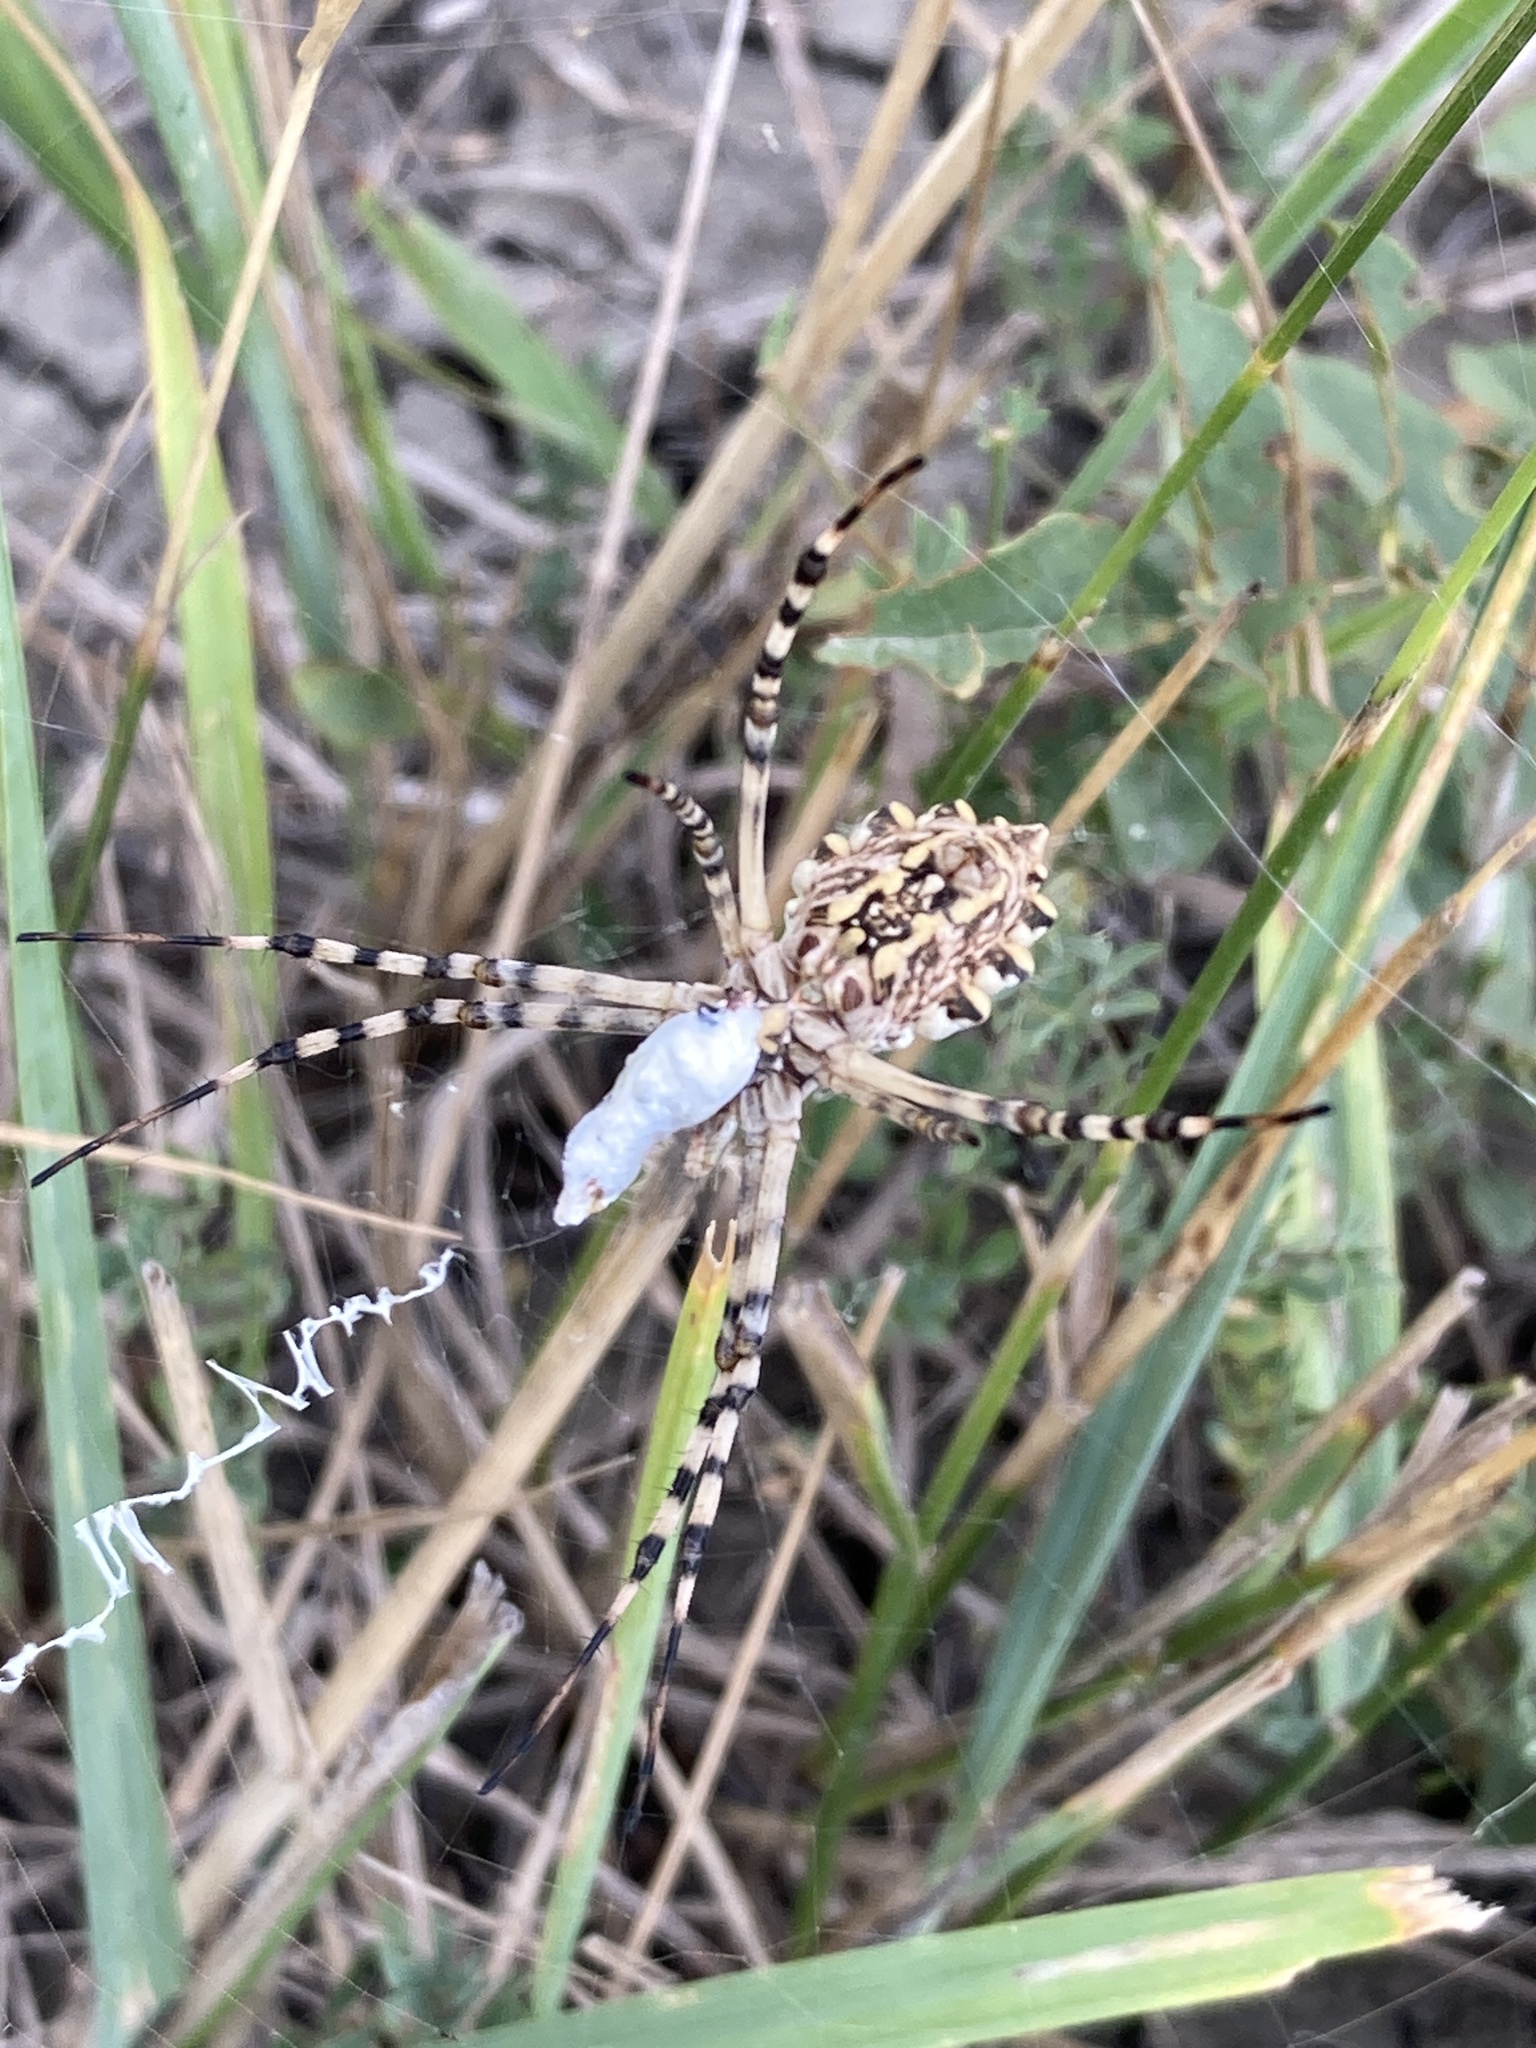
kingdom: Animalia
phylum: Arthropoda
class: Arachnida
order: Araneae
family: Araneidae
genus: Argiope
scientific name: Argiope lobata
